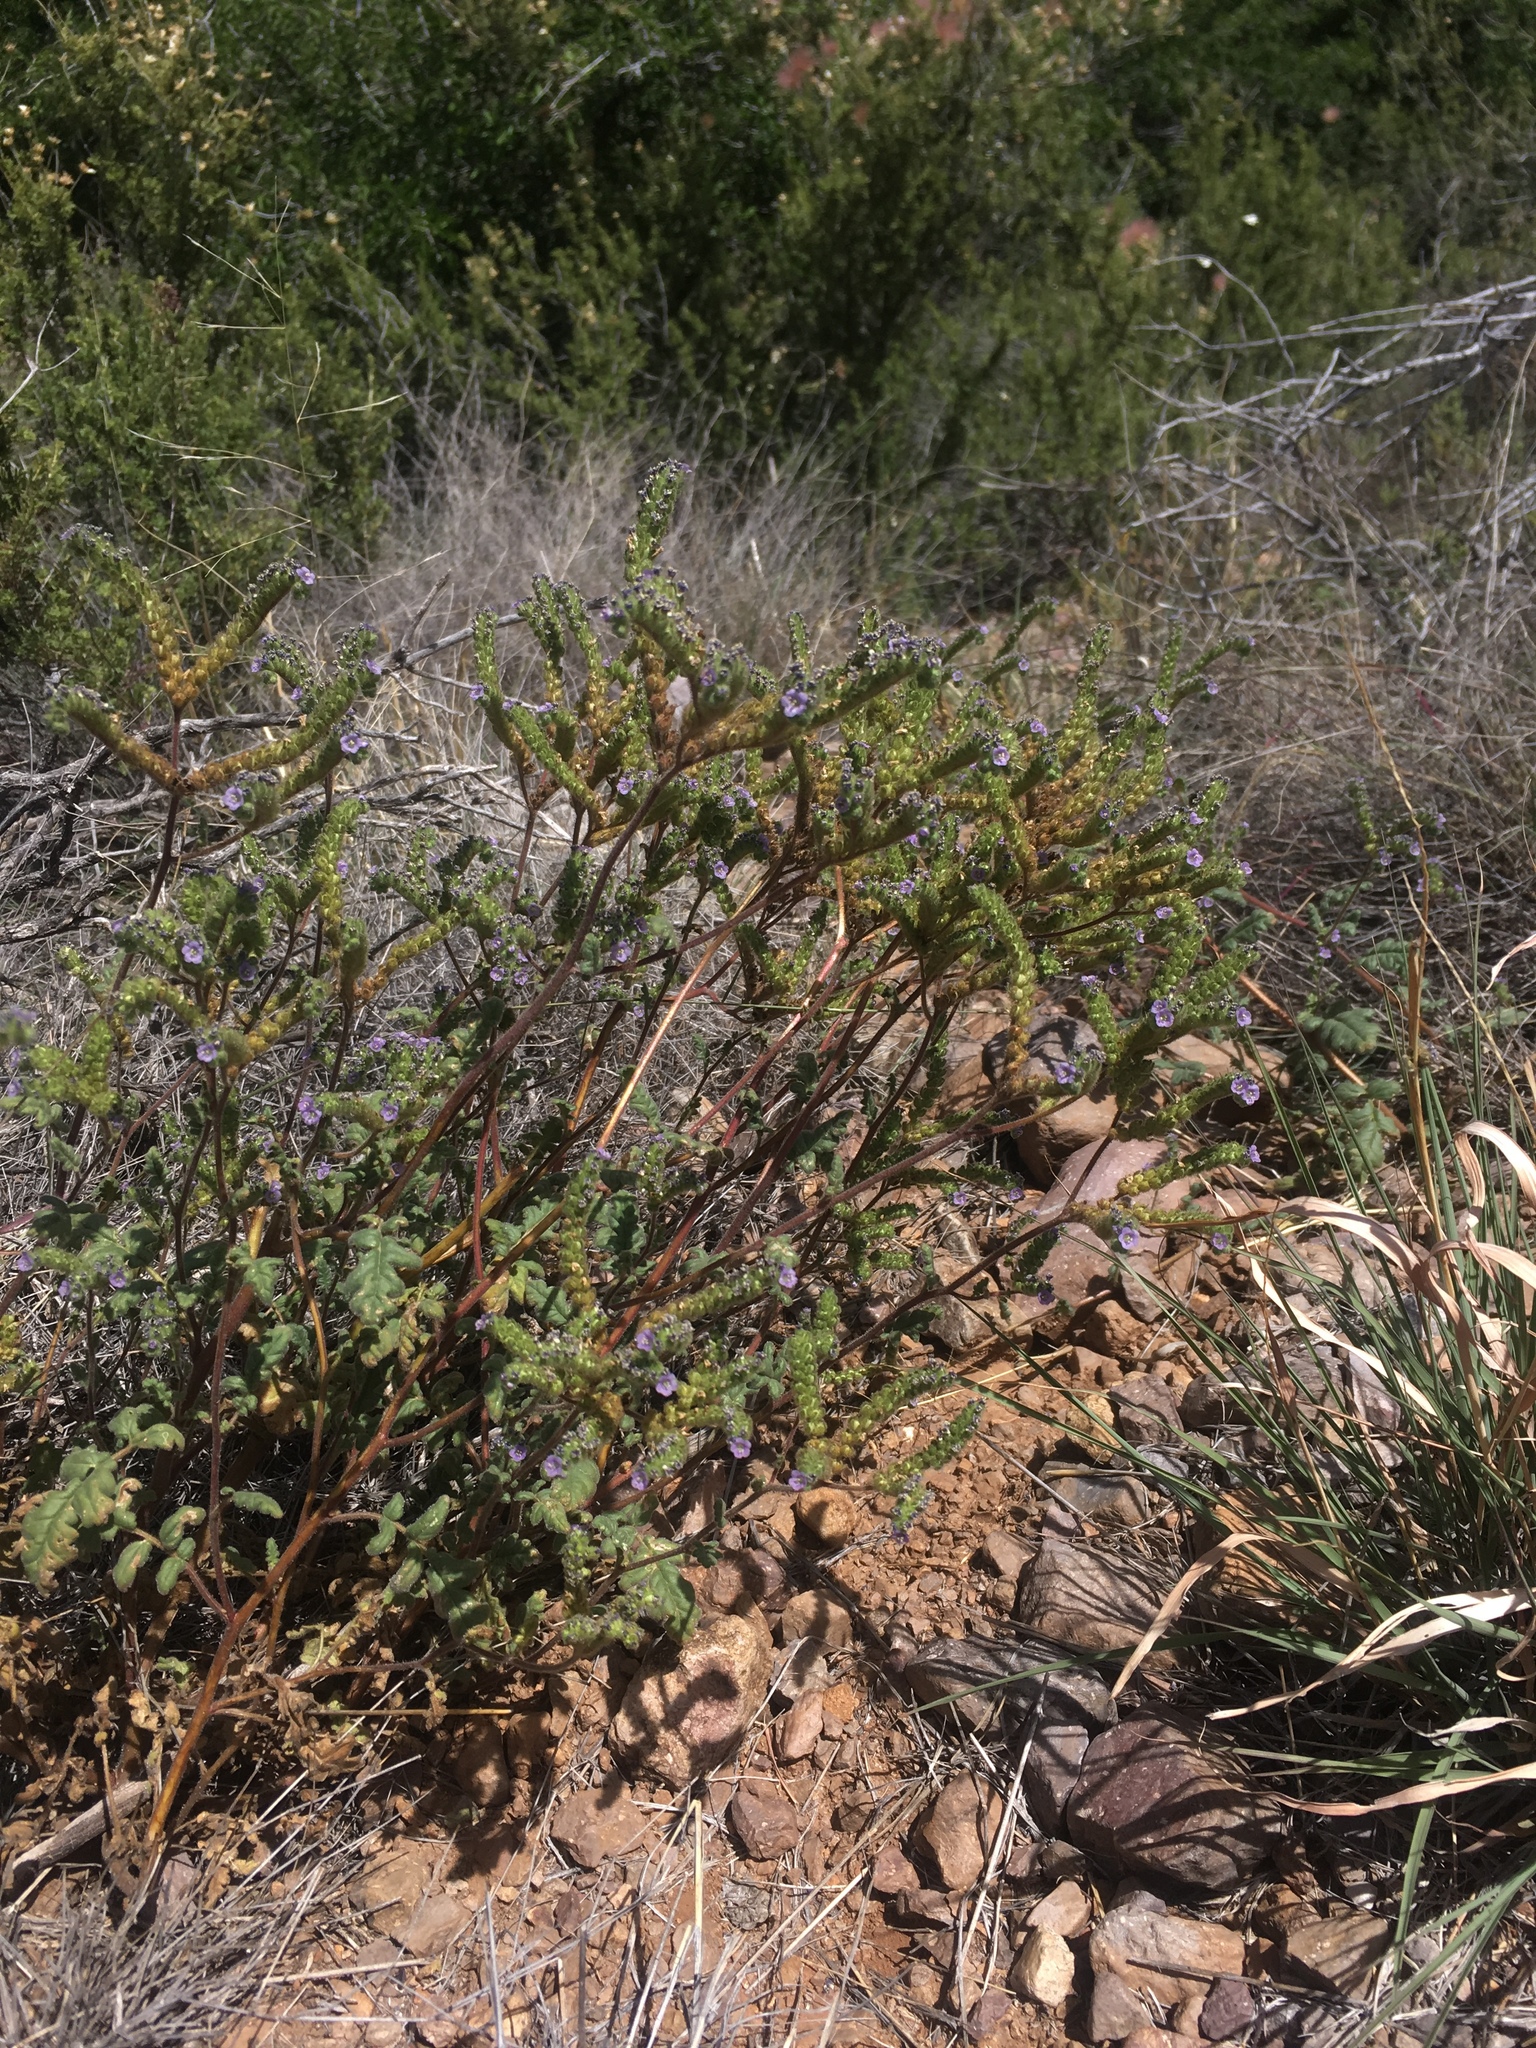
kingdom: Plantae
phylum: Tracheophyta
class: Magnoliopsida
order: Boraginales
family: Hydrophyllaceae
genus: Phacelia
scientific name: Phacelia coerulea
